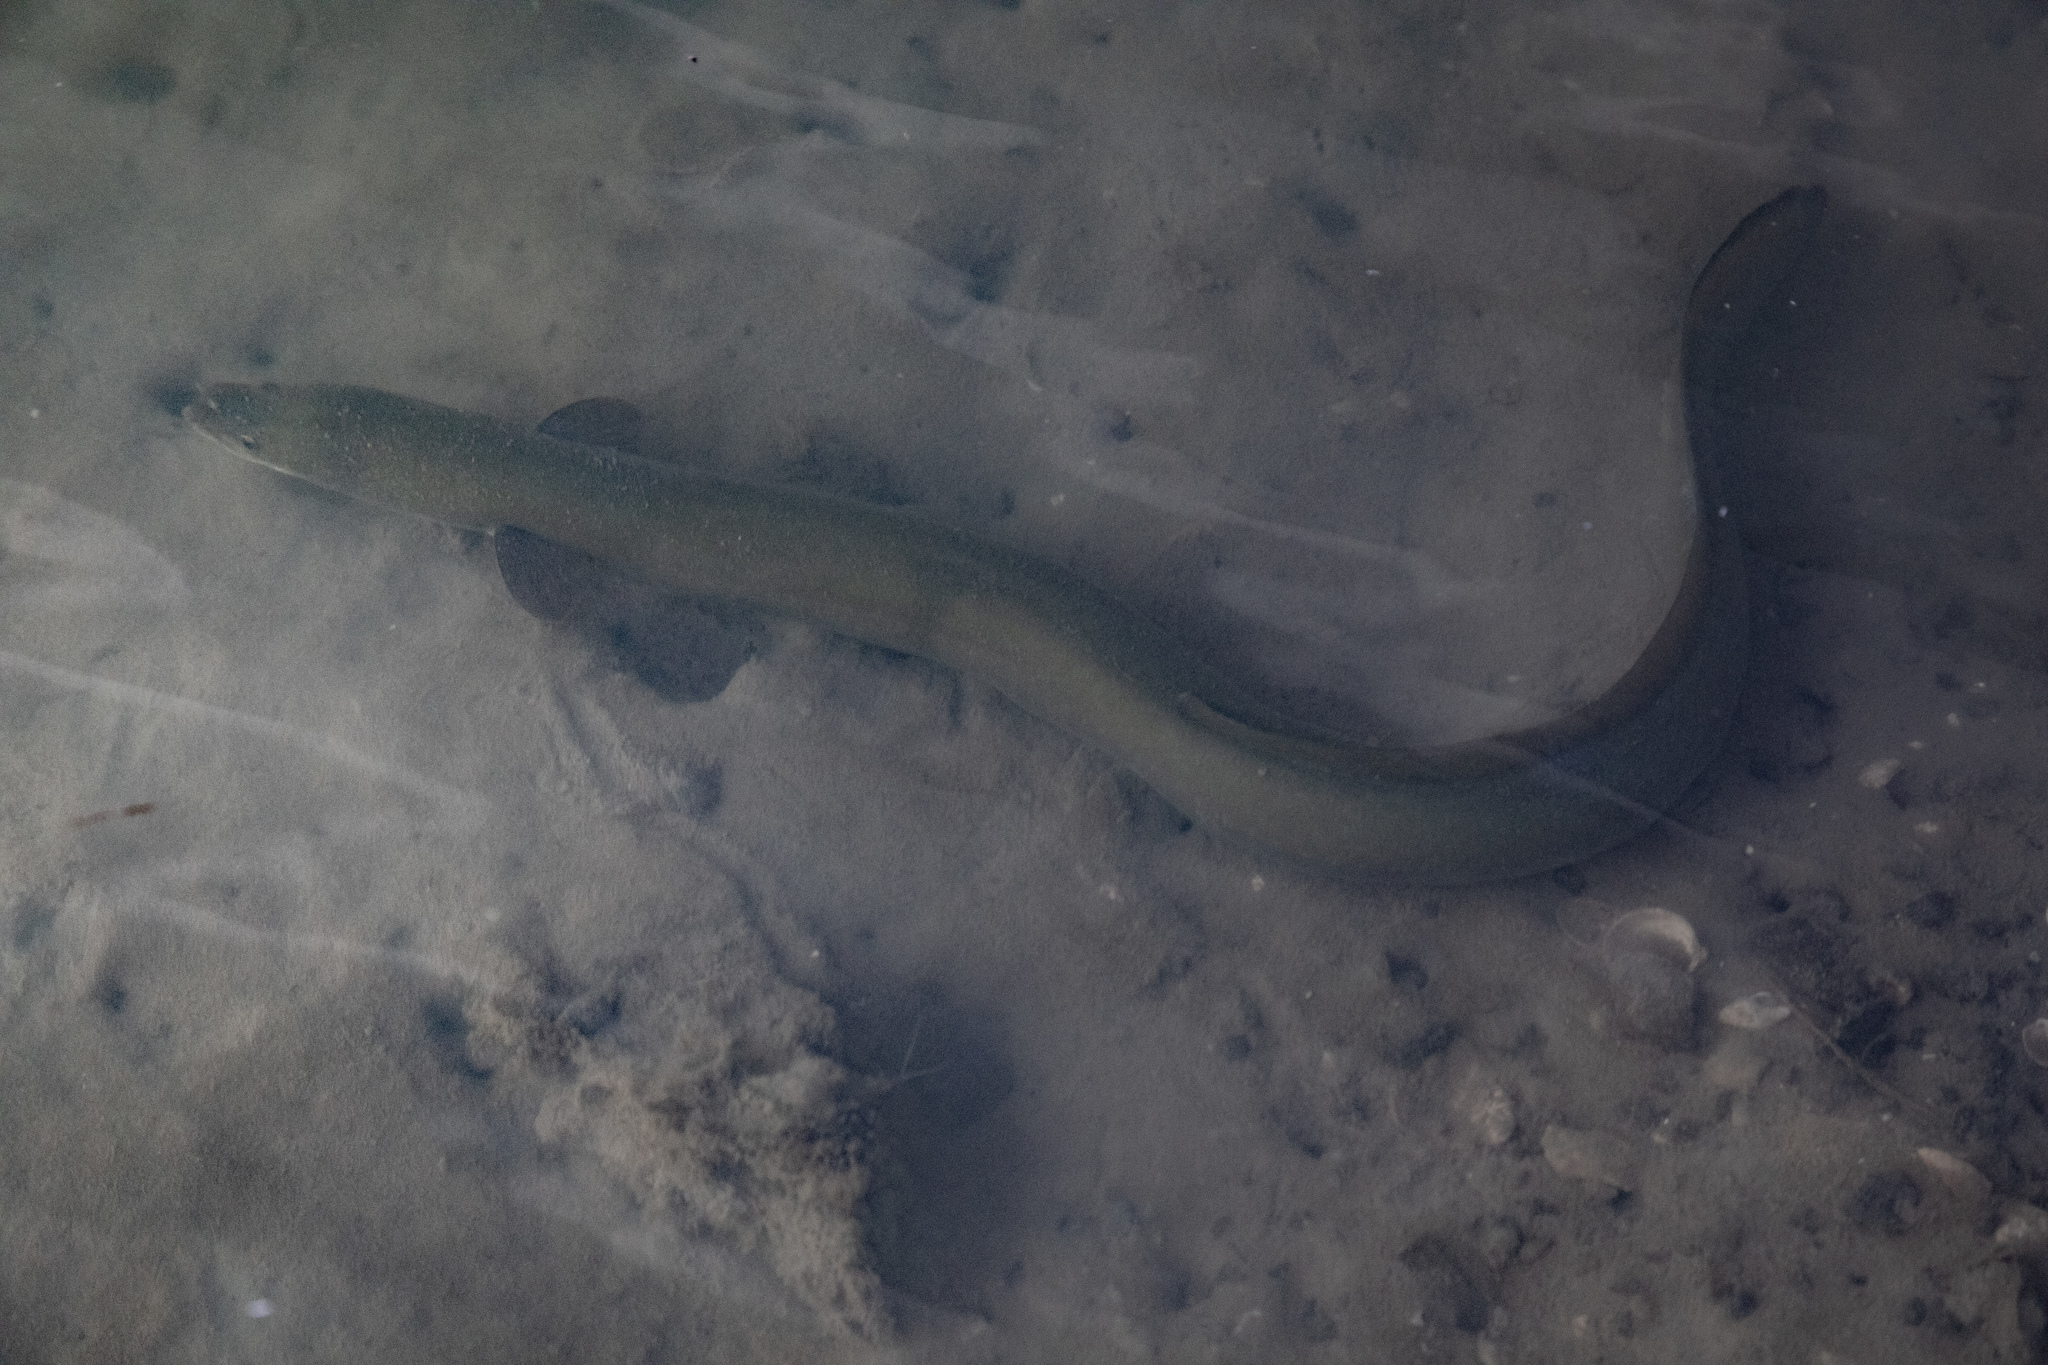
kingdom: Animalia
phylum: Chordata
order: Anguilliformes
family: Anguillidae
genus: Anguilla
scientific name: Anguilla australis
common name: Shortfin eel
